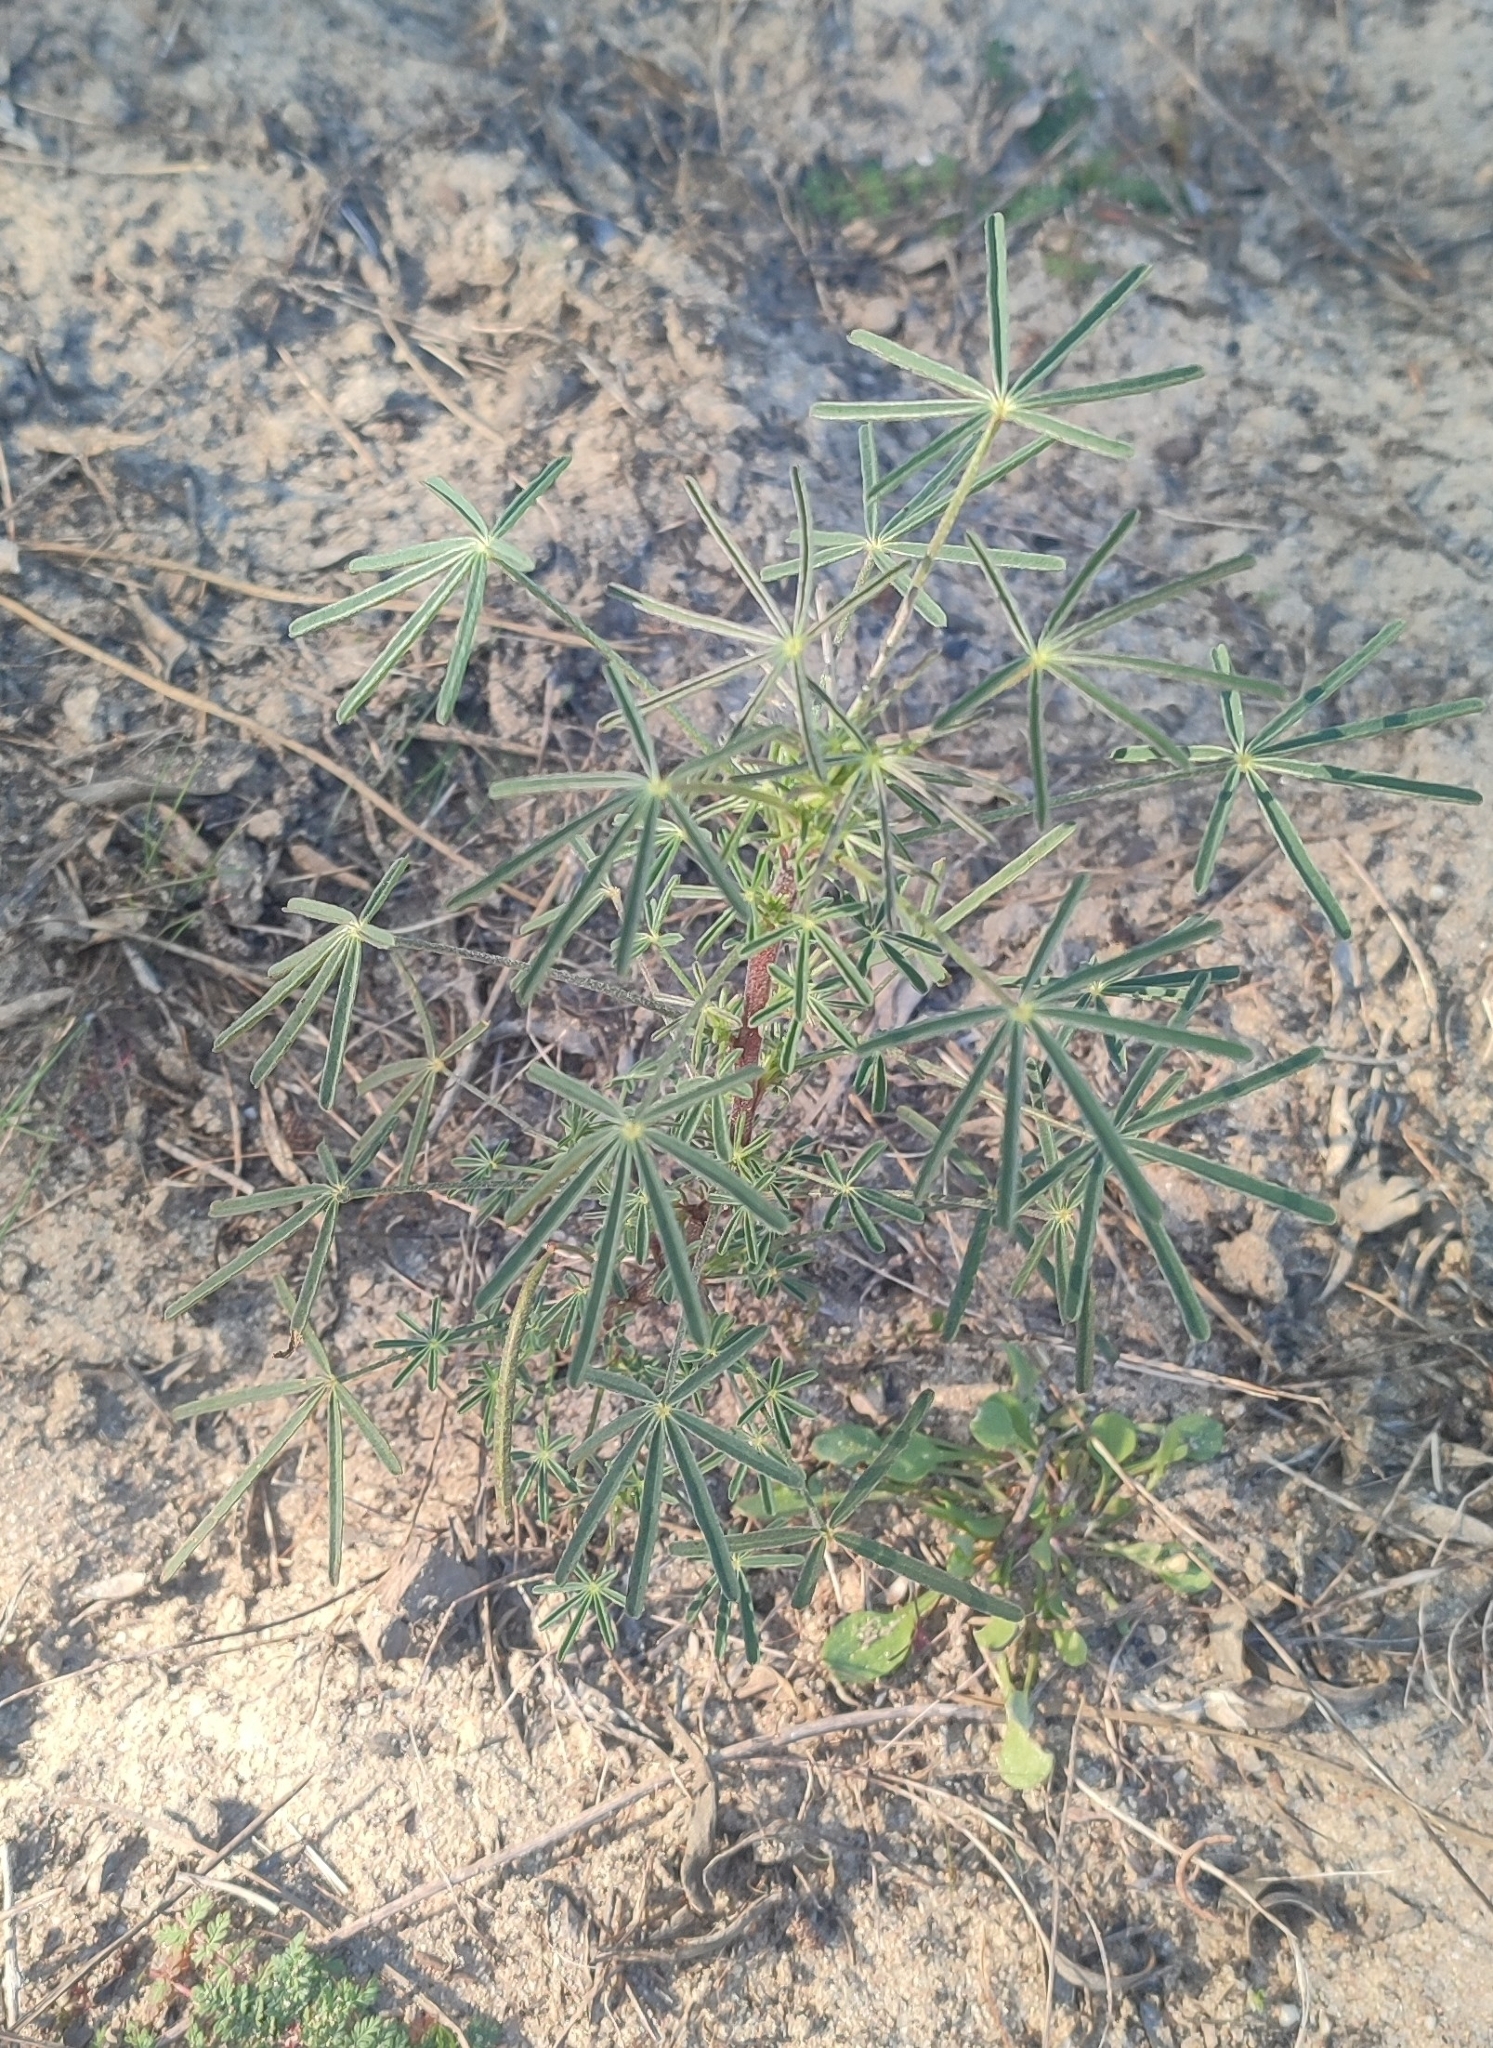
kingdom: Plantae
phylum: Tracheophyta
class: Magnoliopsida
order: Fabales
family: Fabaceae
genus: Lupinus
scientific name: Lupinus angustifolius
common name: Narrow-leaved lupin
